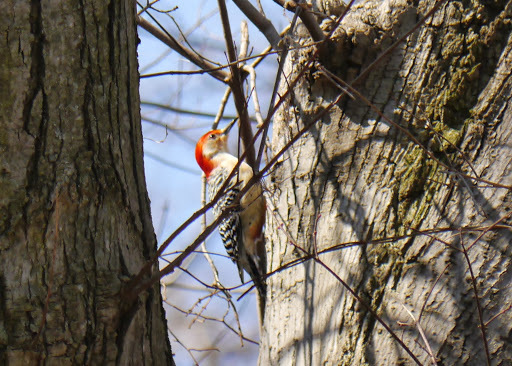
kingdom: Animalia
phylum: Chordata
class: Aves
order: Piciformes
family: Picidae
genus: Melanerpes
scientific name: Melanerpes carolinus
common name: Red-bellied woodpecker
